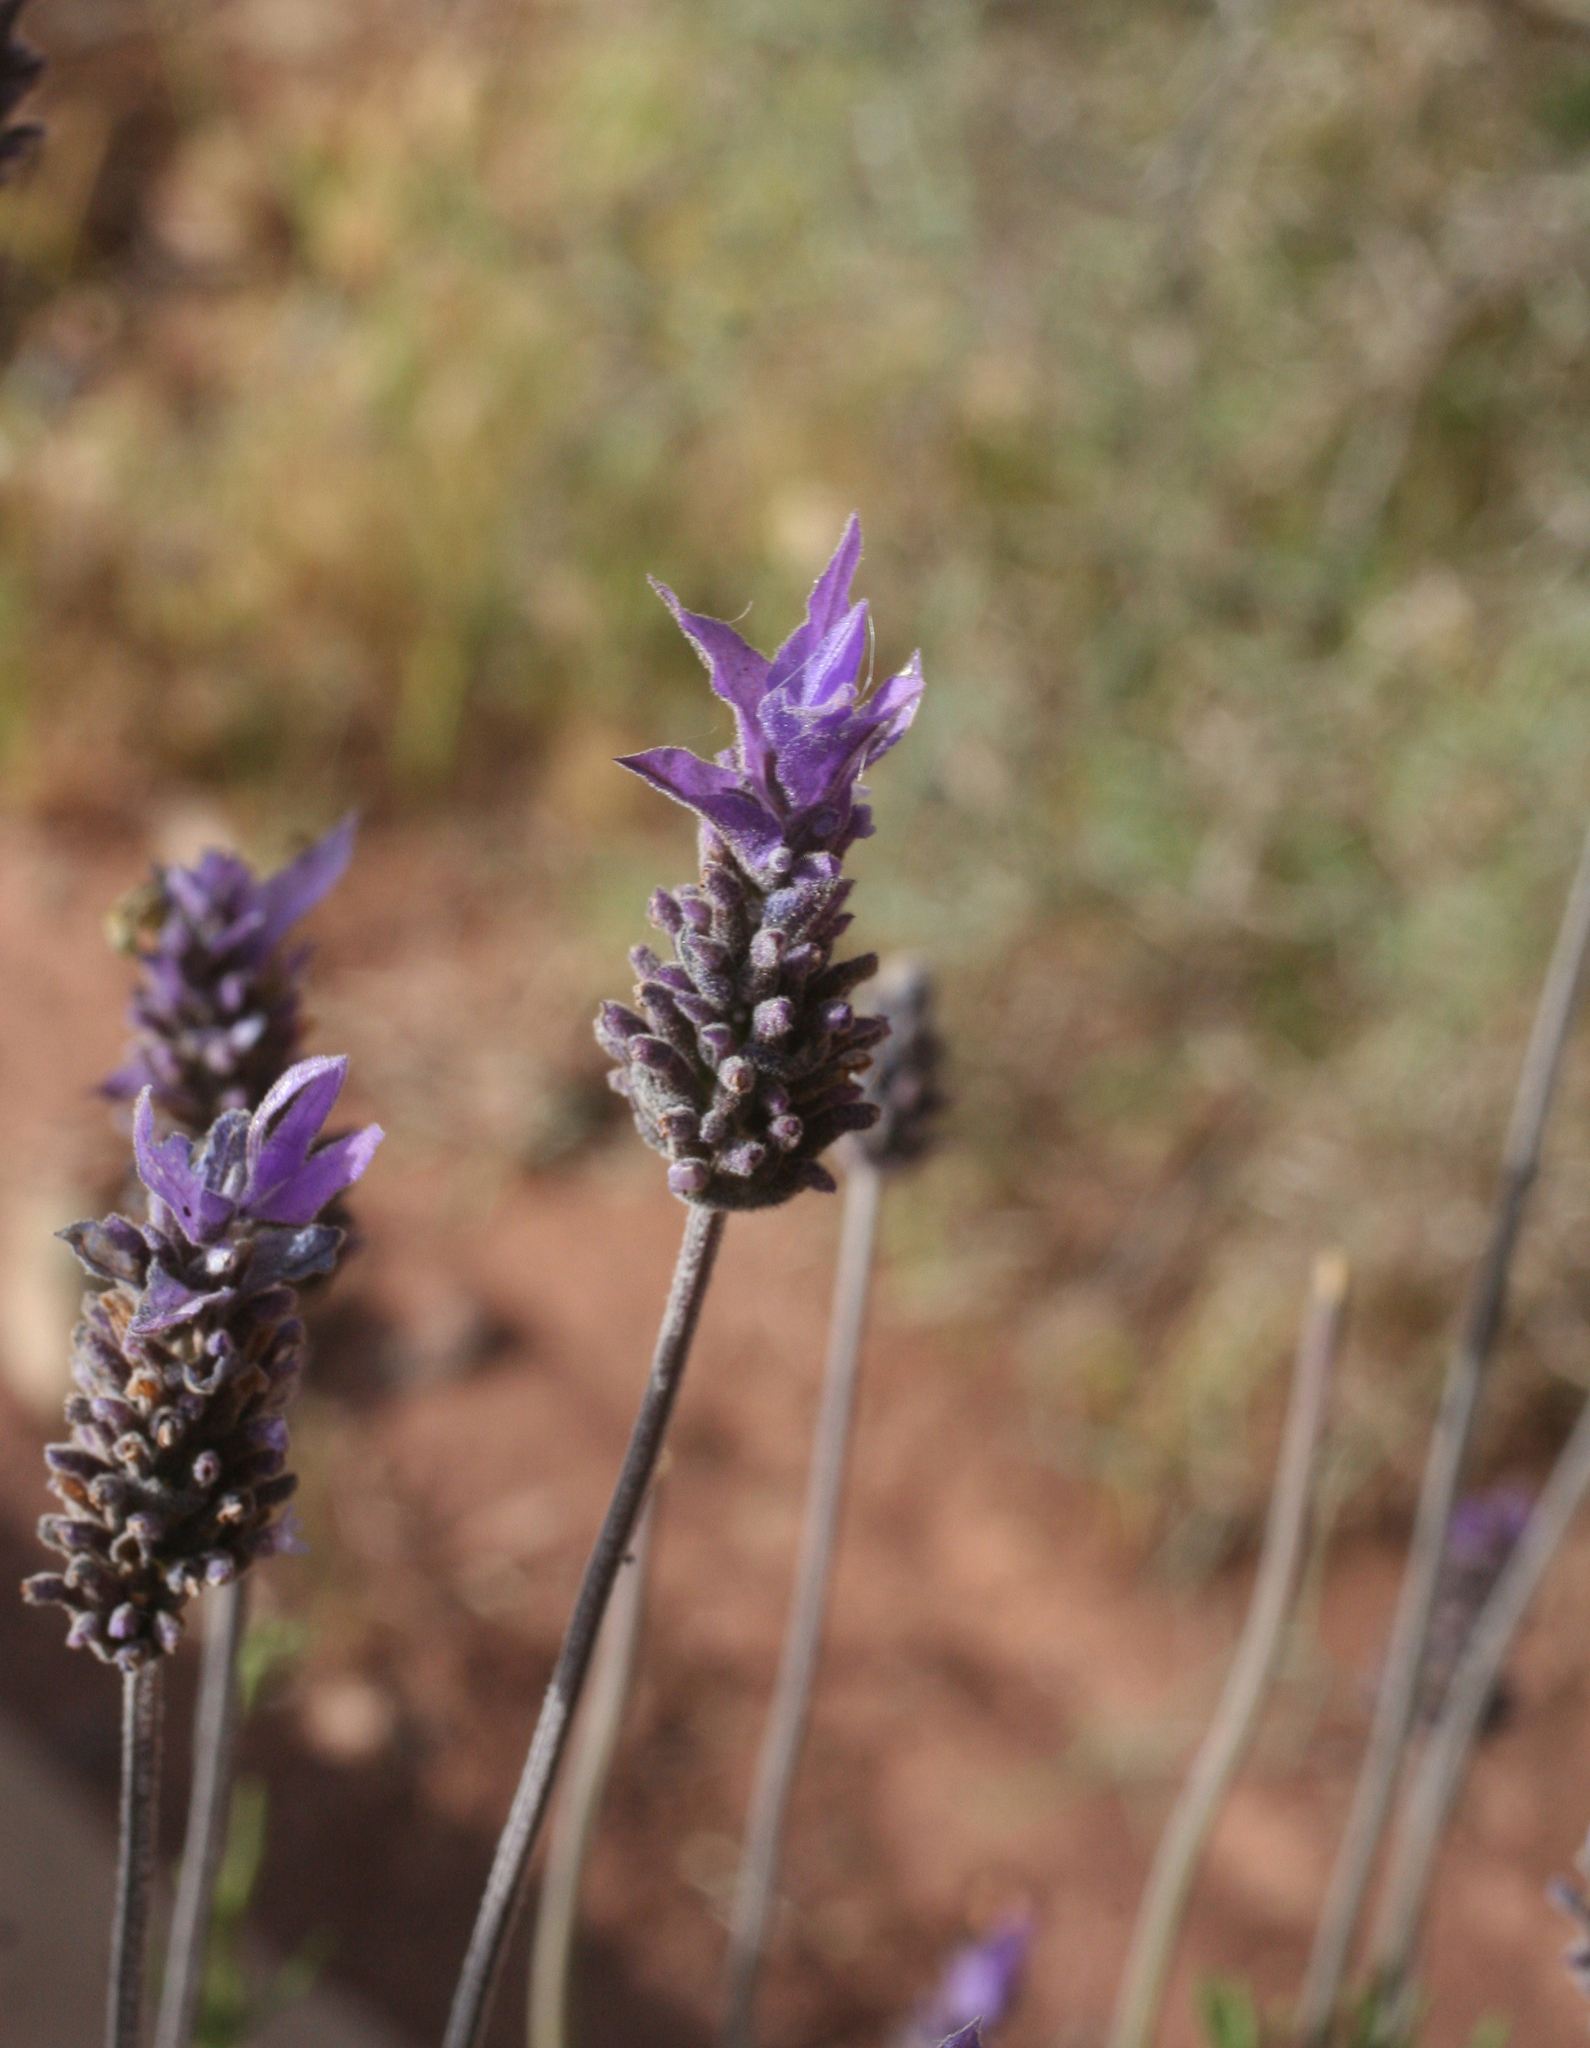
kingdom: Plantae
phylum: Tracheophyta
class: Magnoliopsida
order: Lamiales
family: Lamiaceae
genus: Lavandula
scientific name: Lavandula dentata
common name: French lavender
